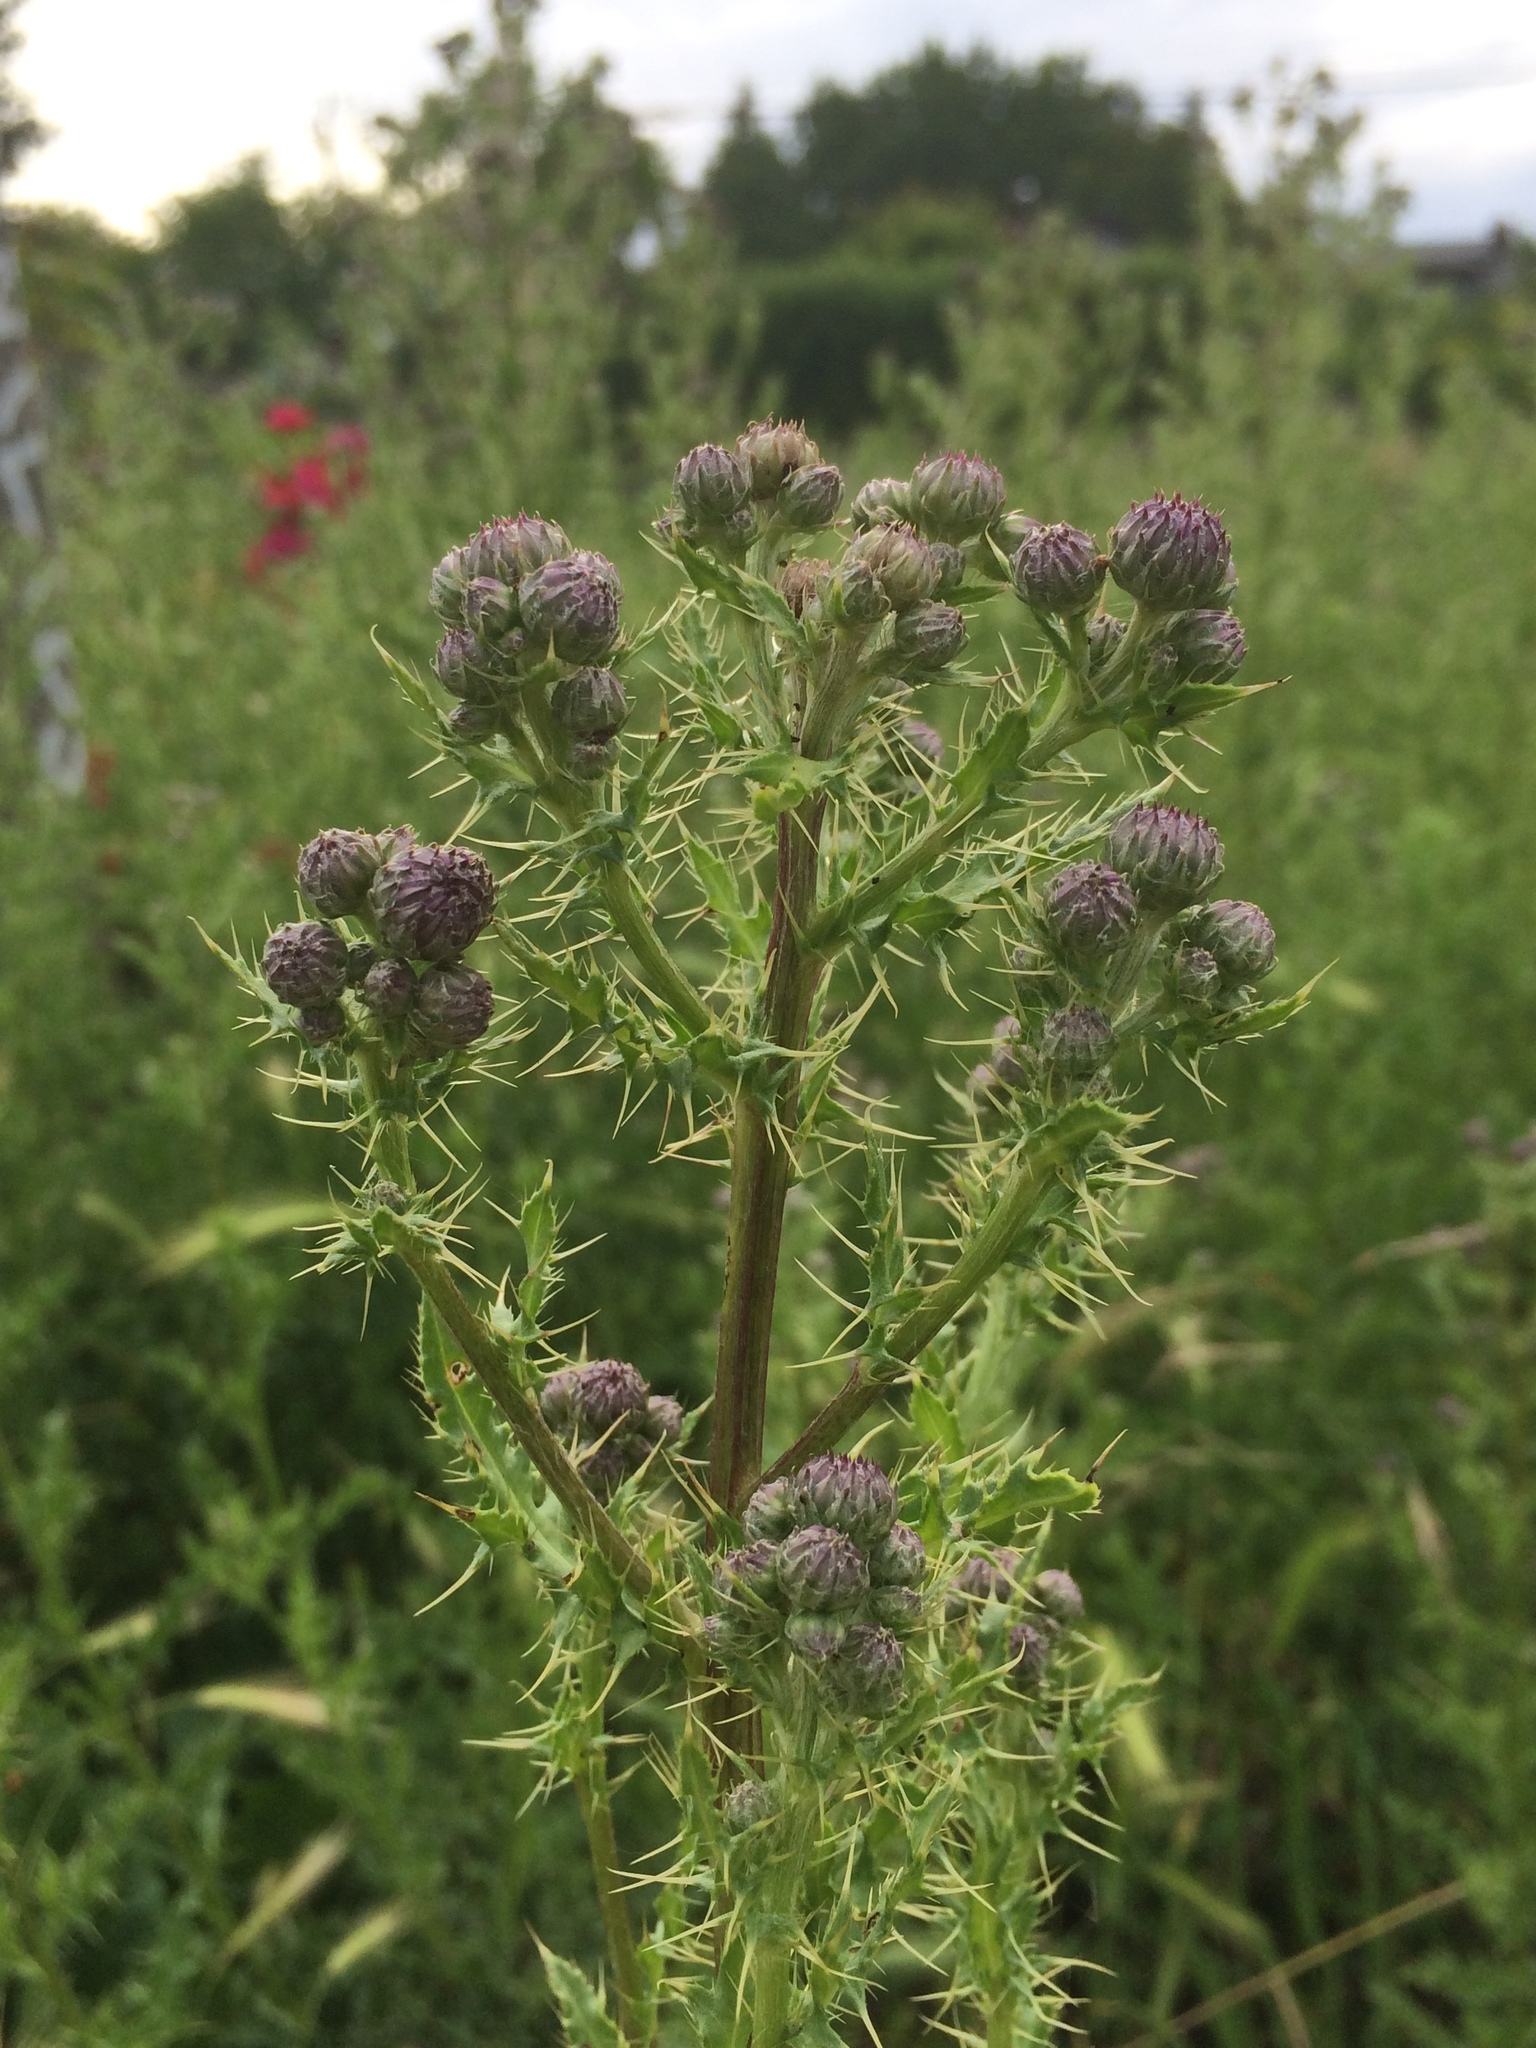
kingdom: Plantae
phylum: Tracheophyta
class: Magnoliopsida
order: Asterales
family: Asteraceae
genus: Cirsium
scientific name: Cirsium arvense
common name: Creeping thistle
